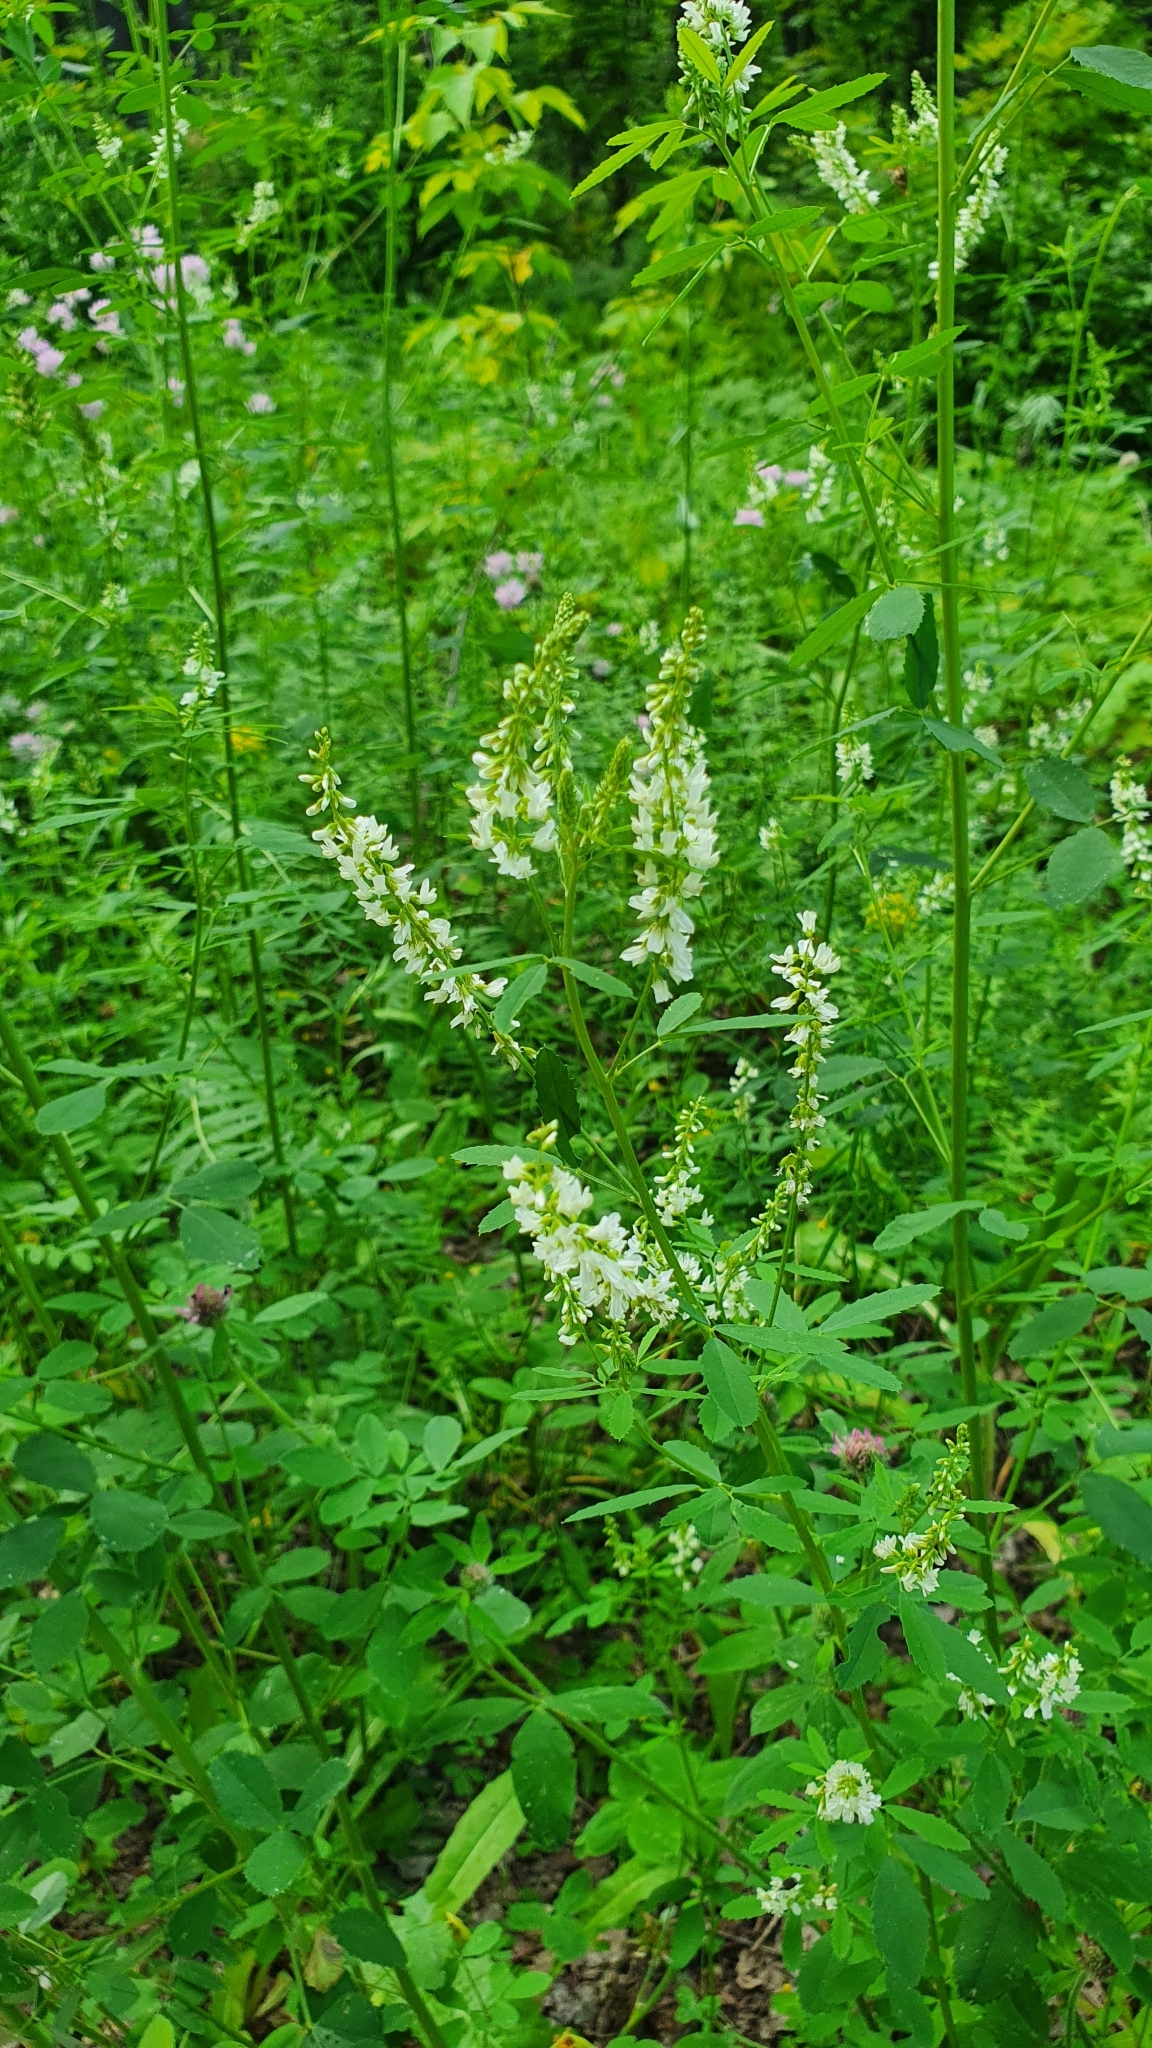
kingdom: Plantae
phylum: Tracheophyta
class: Magnoliopsida
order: Fabales
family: Fabaceae
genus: Melilotus
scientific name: Melilotus albus
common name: White melilot
